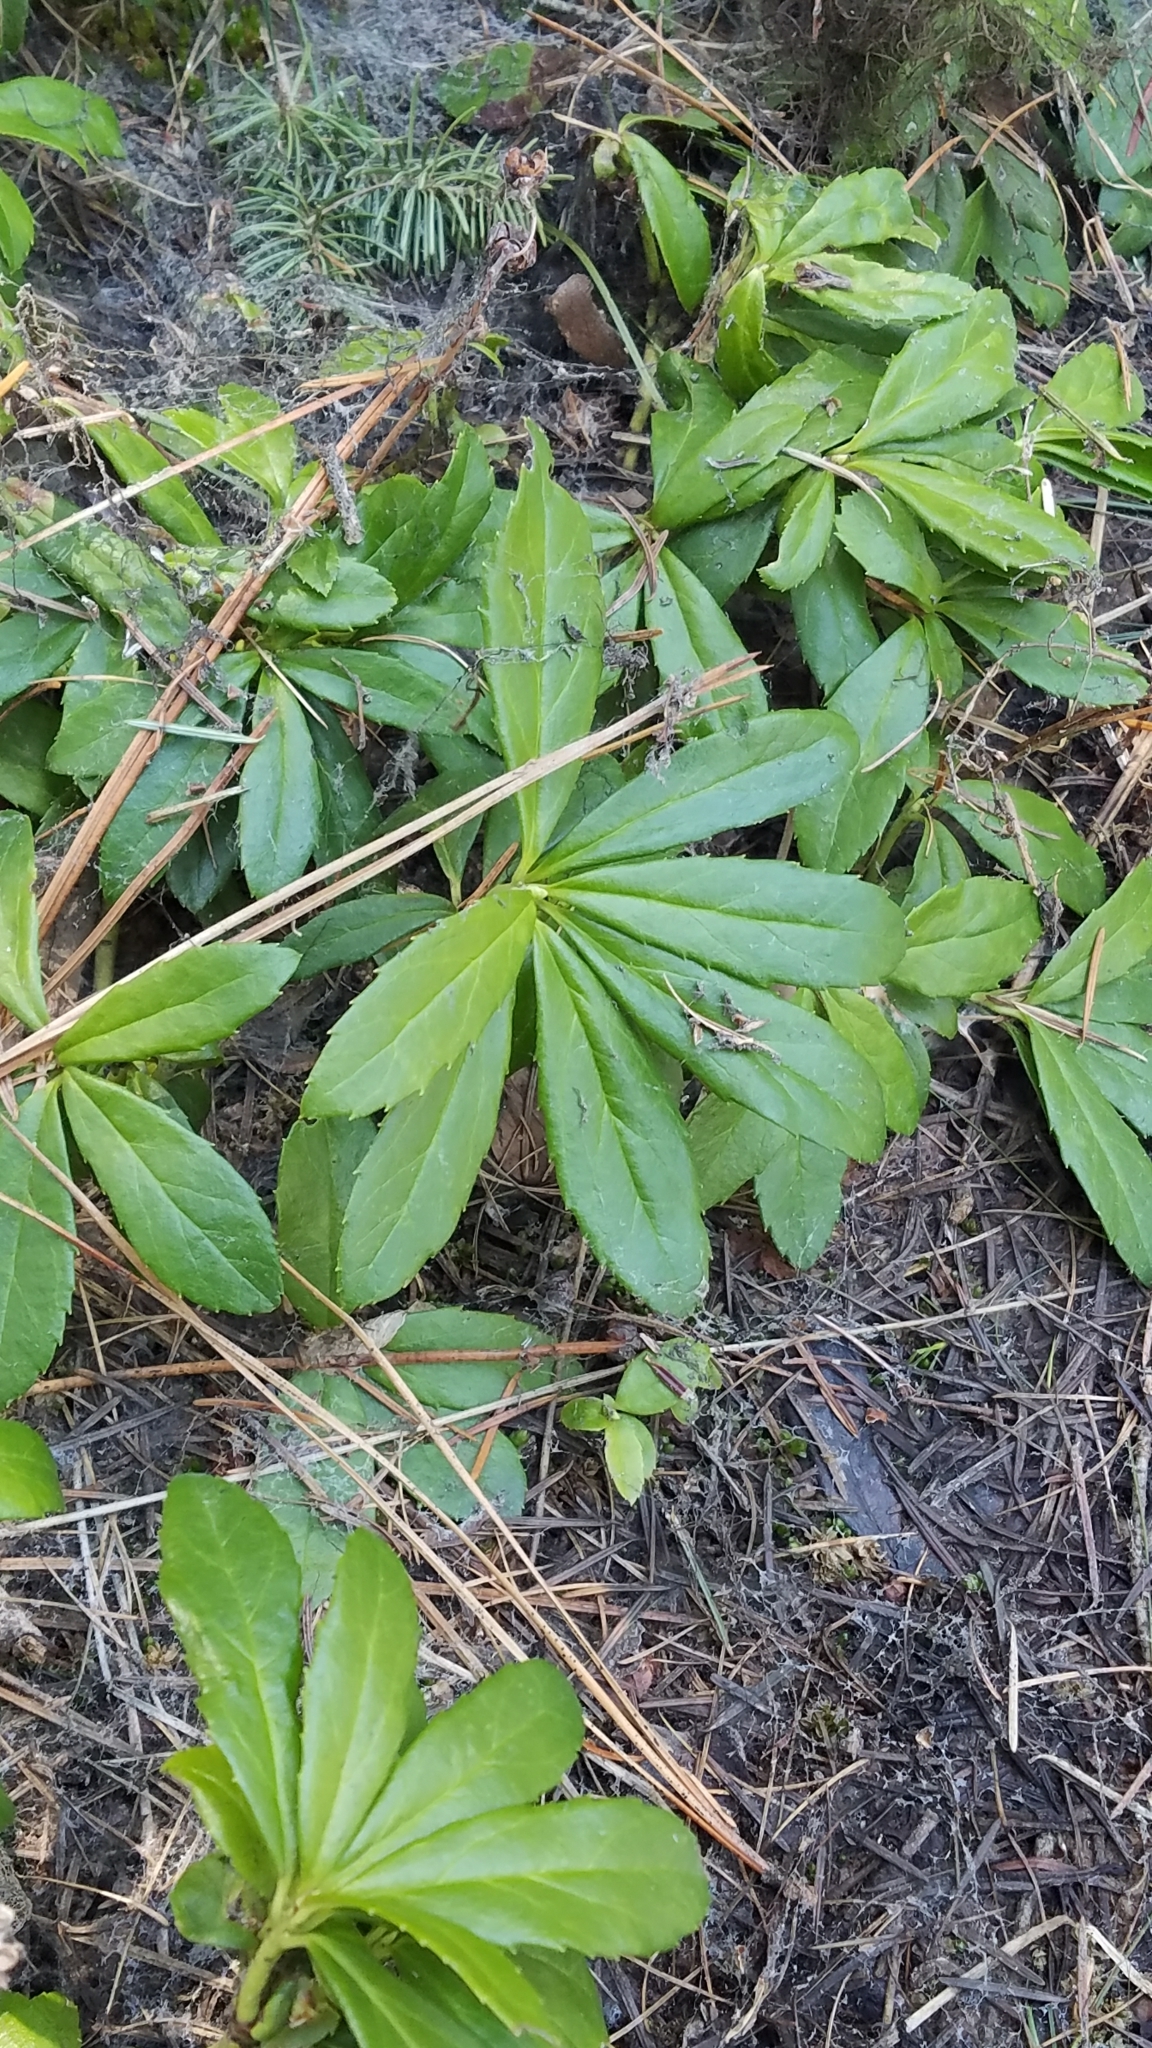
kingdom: Plantae
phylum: Tracheophyta
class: Magnoliopsida
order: Ericales
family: Ericaceae
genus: Chimaphila
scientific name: Chimaphila umbellata
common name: Pipsissewa
